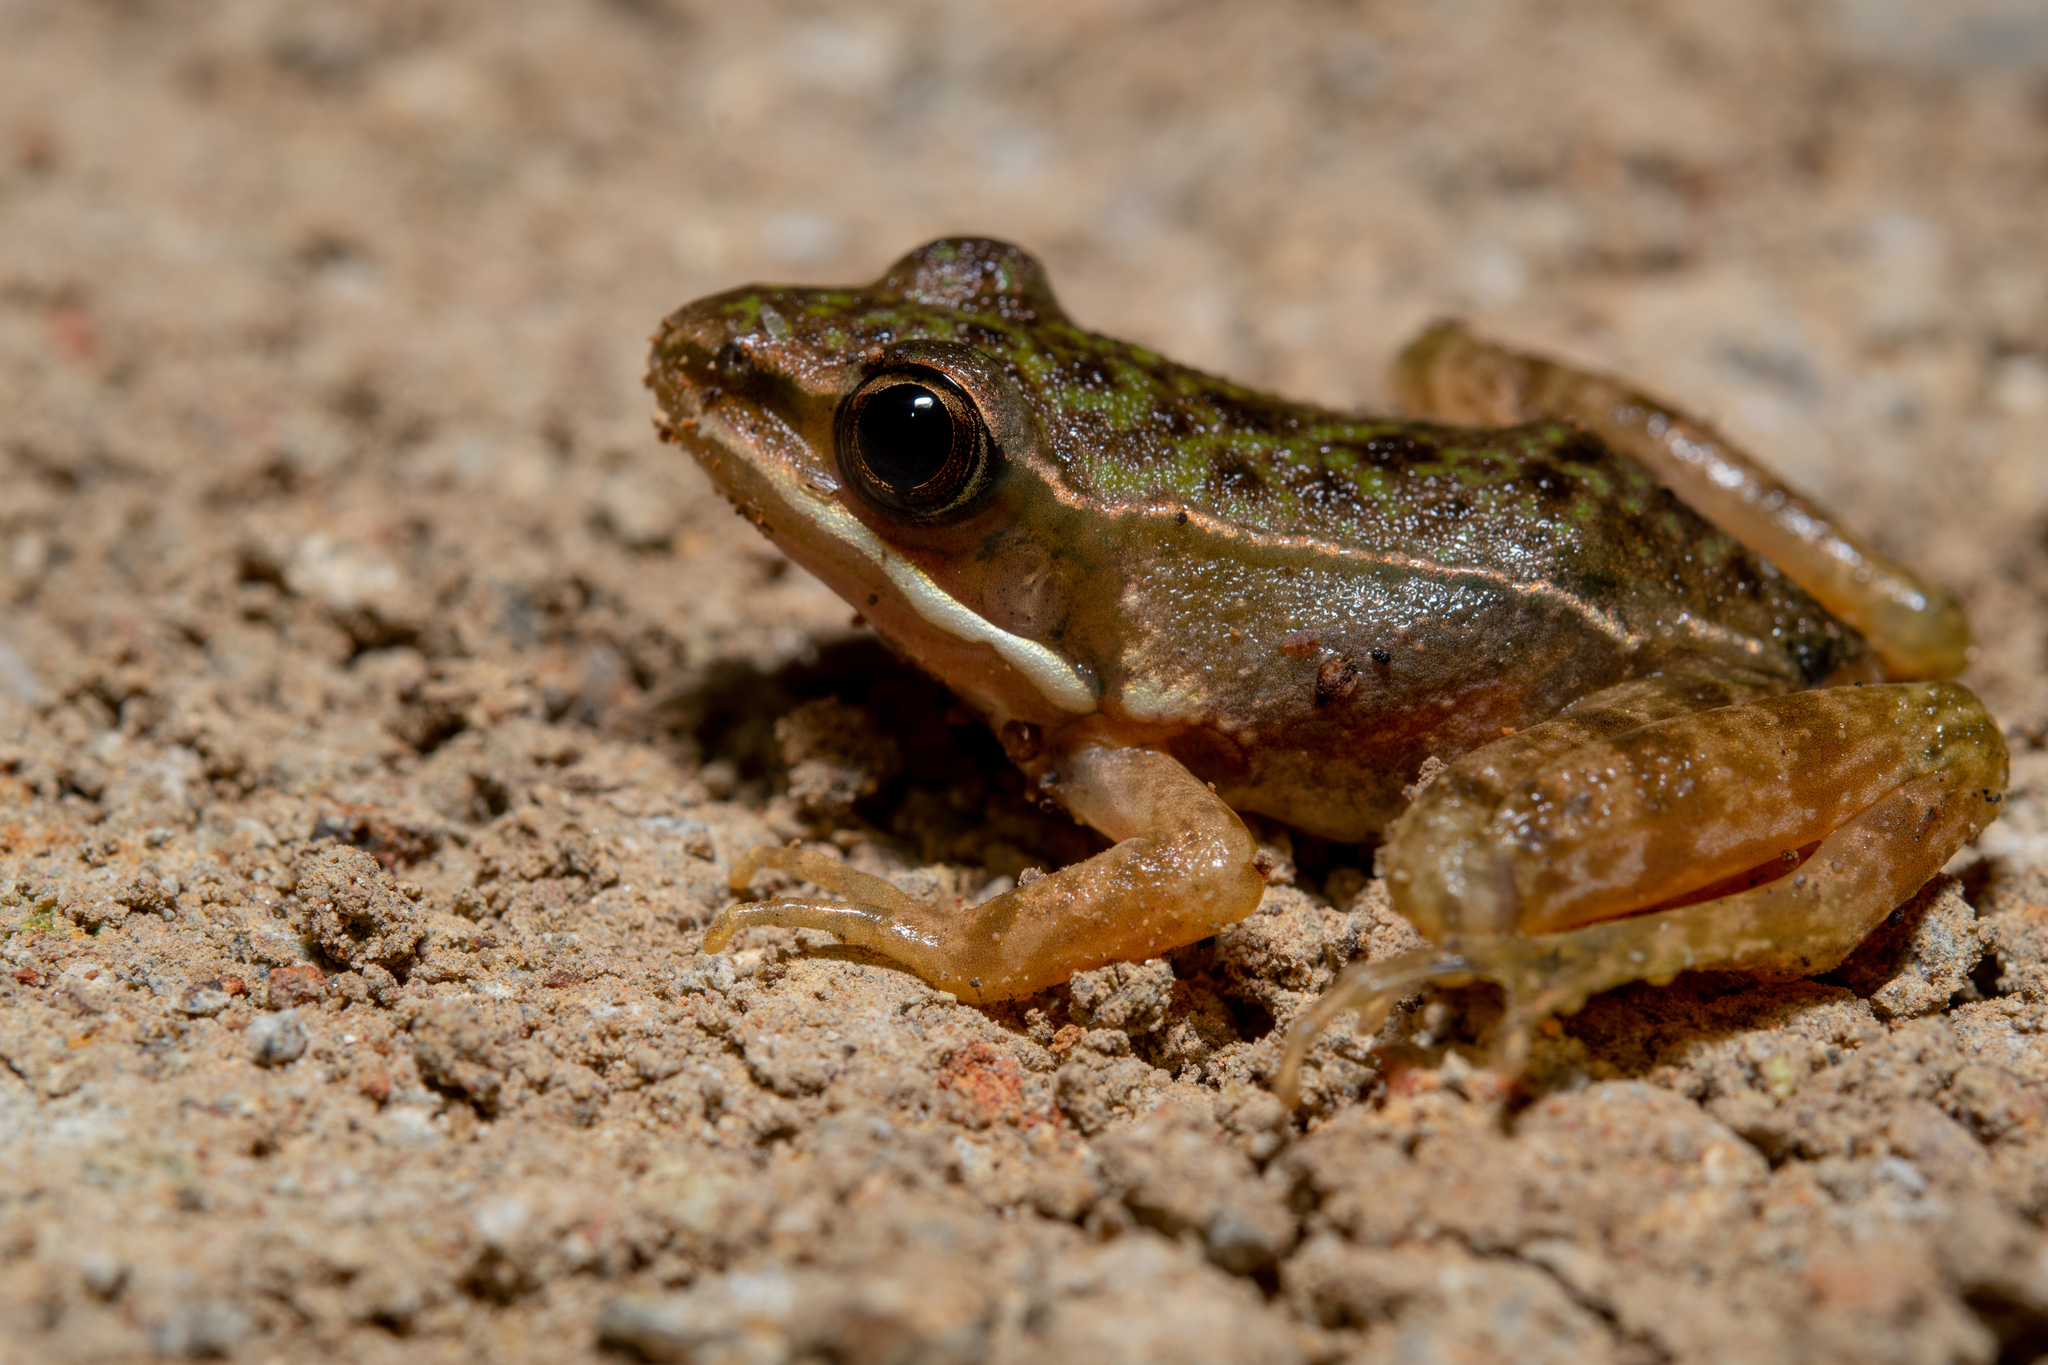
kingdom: Animalia
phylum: Chordata
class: Amphibia
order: Anura
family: Ranidae
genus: Lithobates
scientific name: Lithobates maculatus
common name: Highland frog
